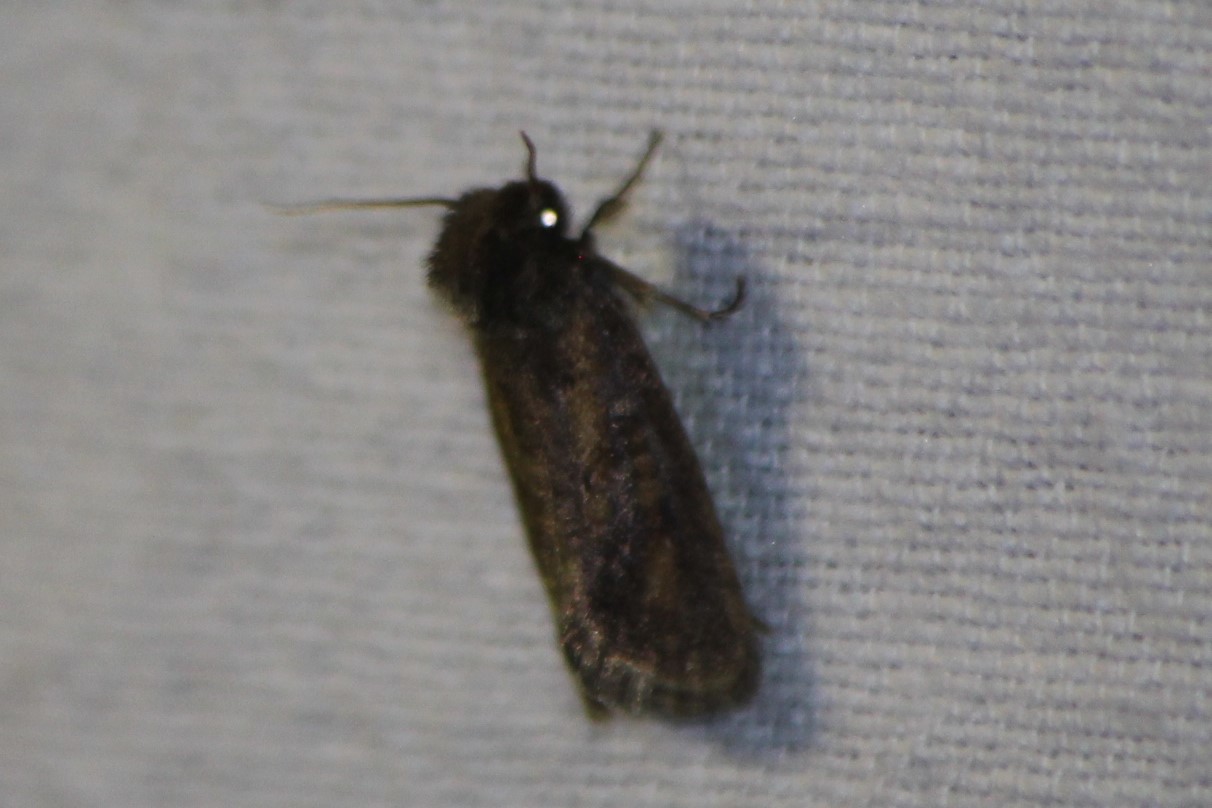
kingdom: Animalia
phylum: Arthropoda
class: Insecta
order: Lepidoptera
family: Tineidae
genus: Acrolophus
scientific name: Acrolophus popeanella
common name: Clemens' grass tubeworm moth
